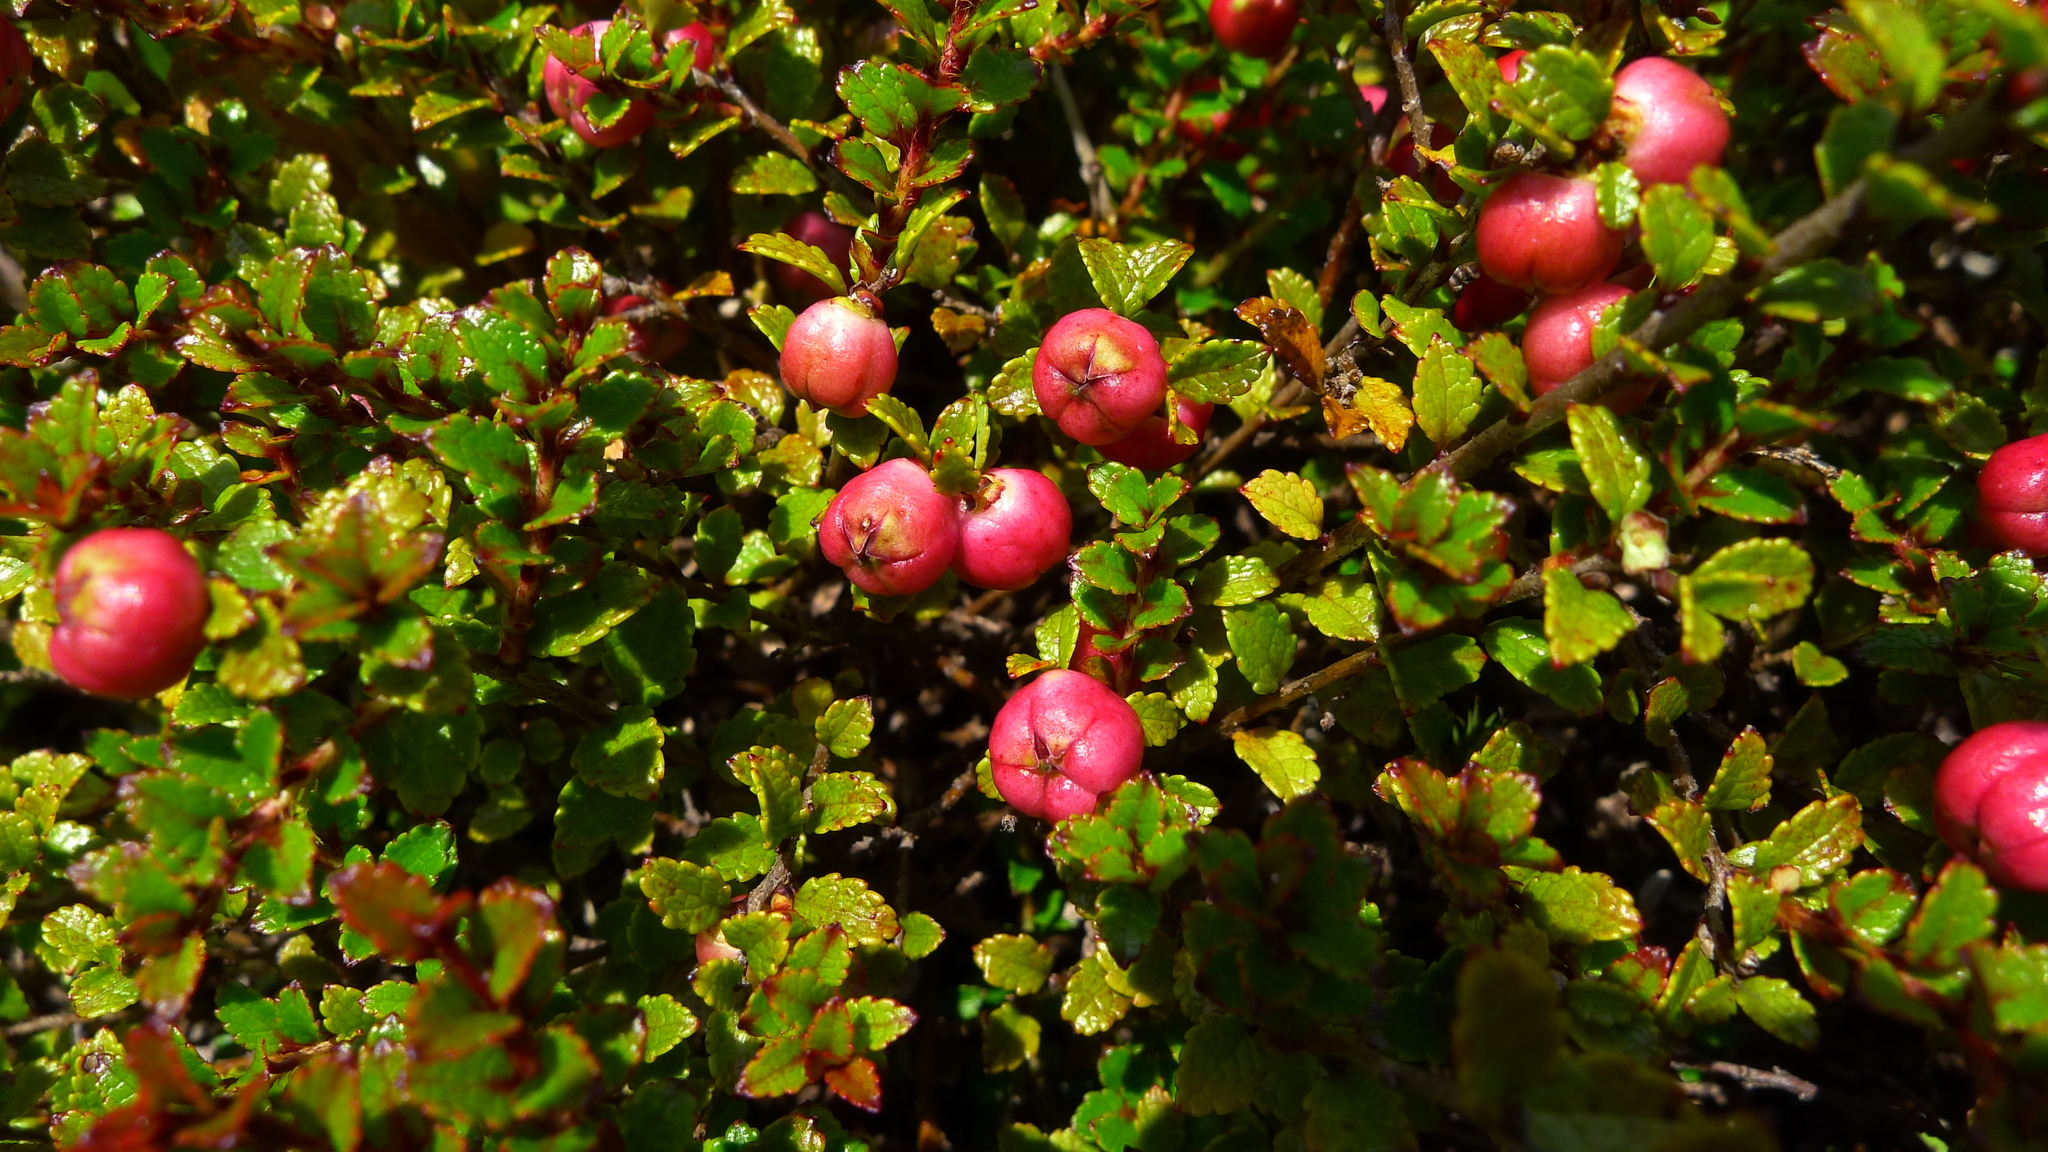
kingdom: Plantae
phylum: Tracheophyta
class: Magnoliopsida
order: Ericales
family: Ericaceae
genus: Gaultheria
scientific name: Gaultheria depressa
